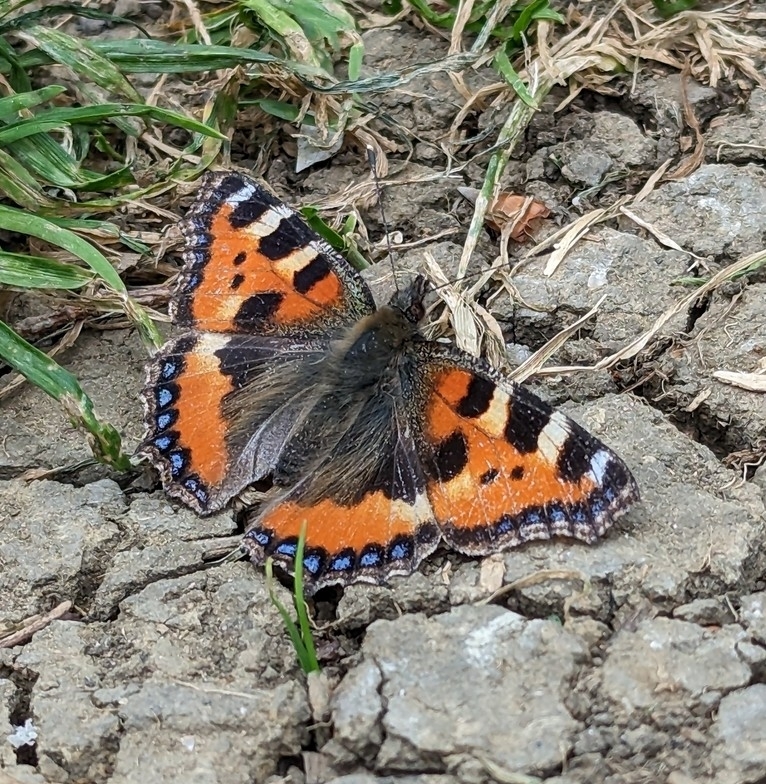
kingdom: Animalia
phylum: Arthropoda
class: Insecta
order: Lepidoptera
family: Nymphalidae
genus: Aglais
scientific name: Aglais urticae
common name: Small tortoiseshell
